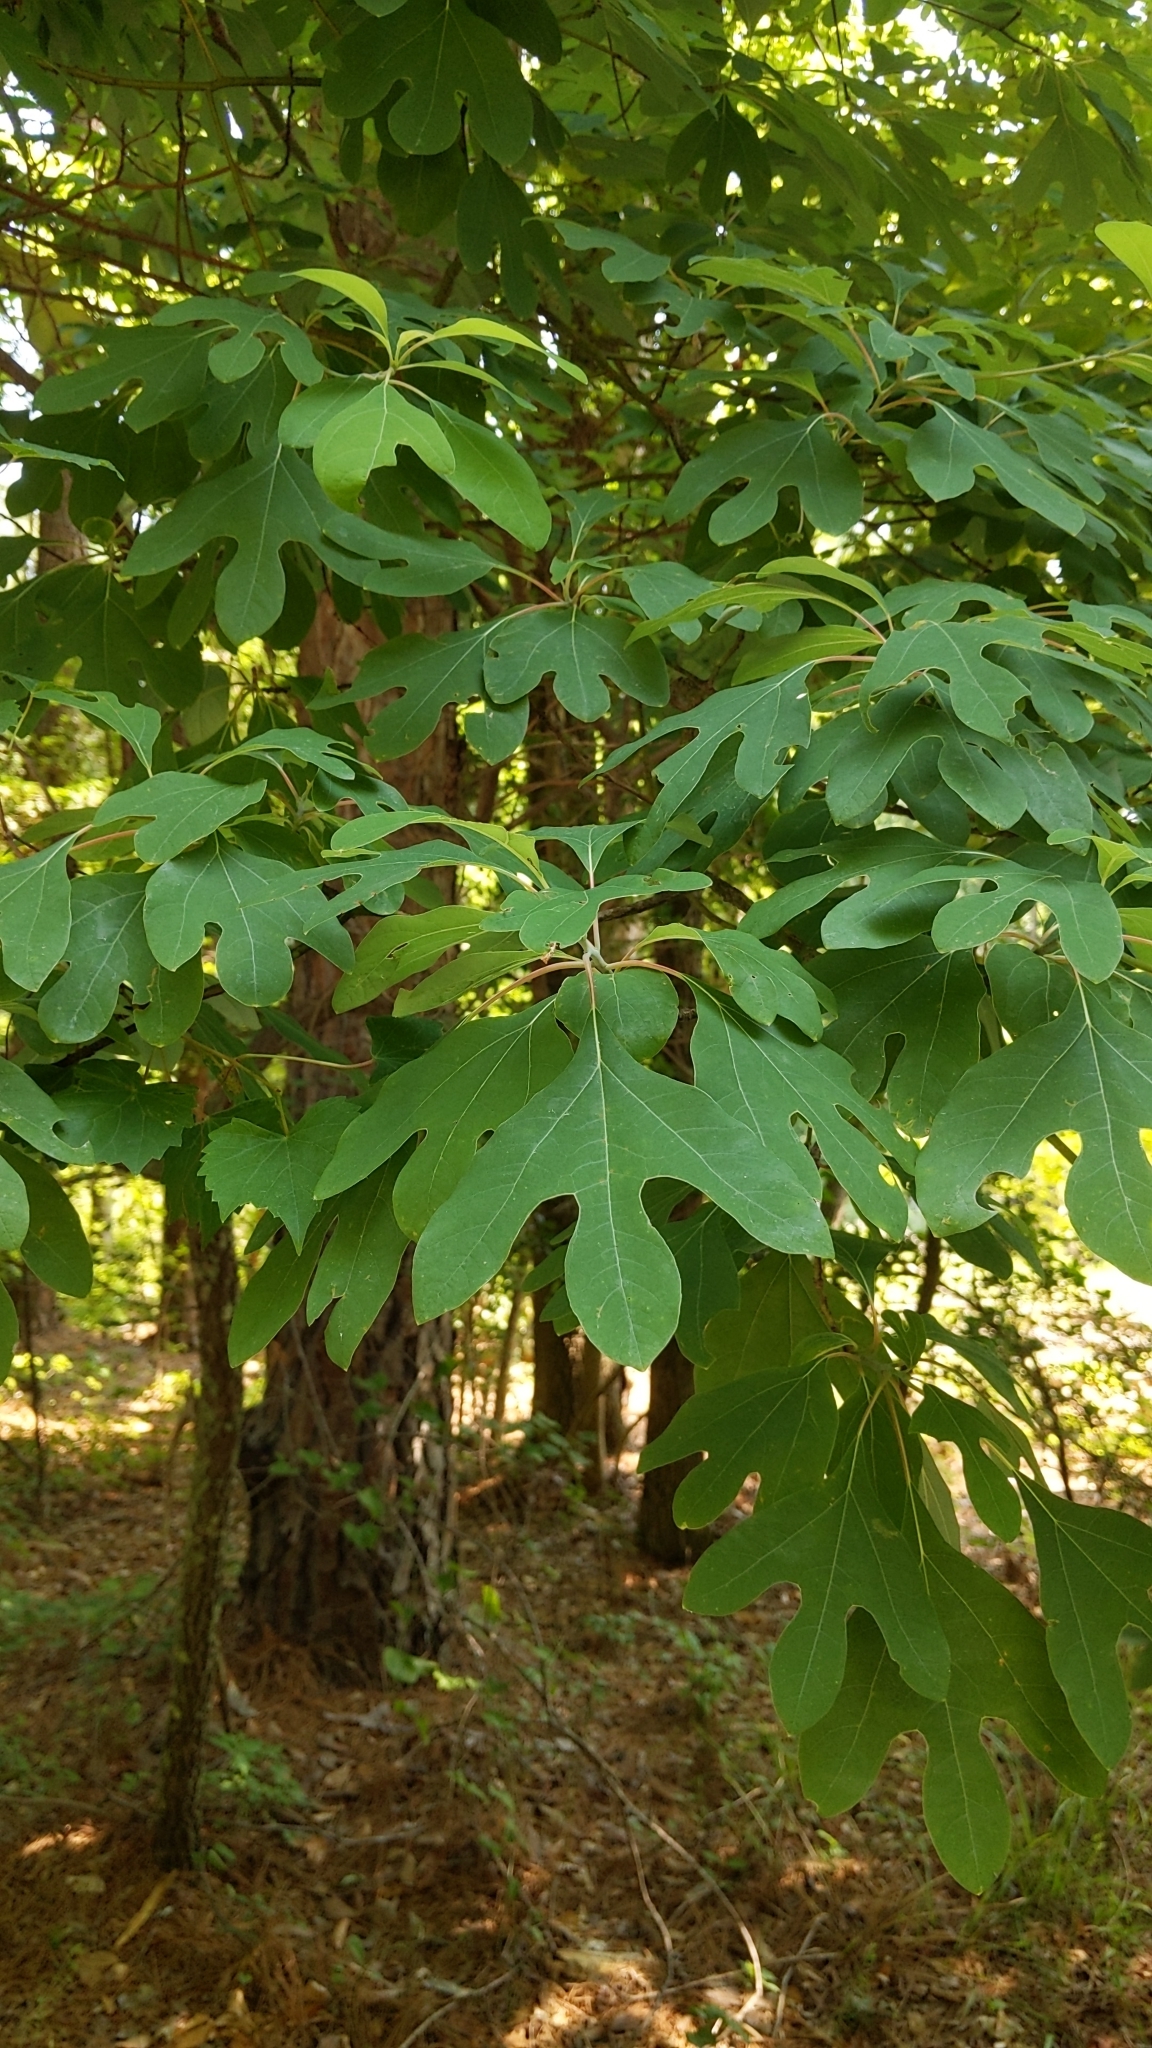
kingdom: Plantae
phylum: Tracheophyta
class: Magnoliopsida
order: Laurales
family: Lauraceae
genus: Sassafras
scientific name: Sassafras albidum
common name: Sassafras
